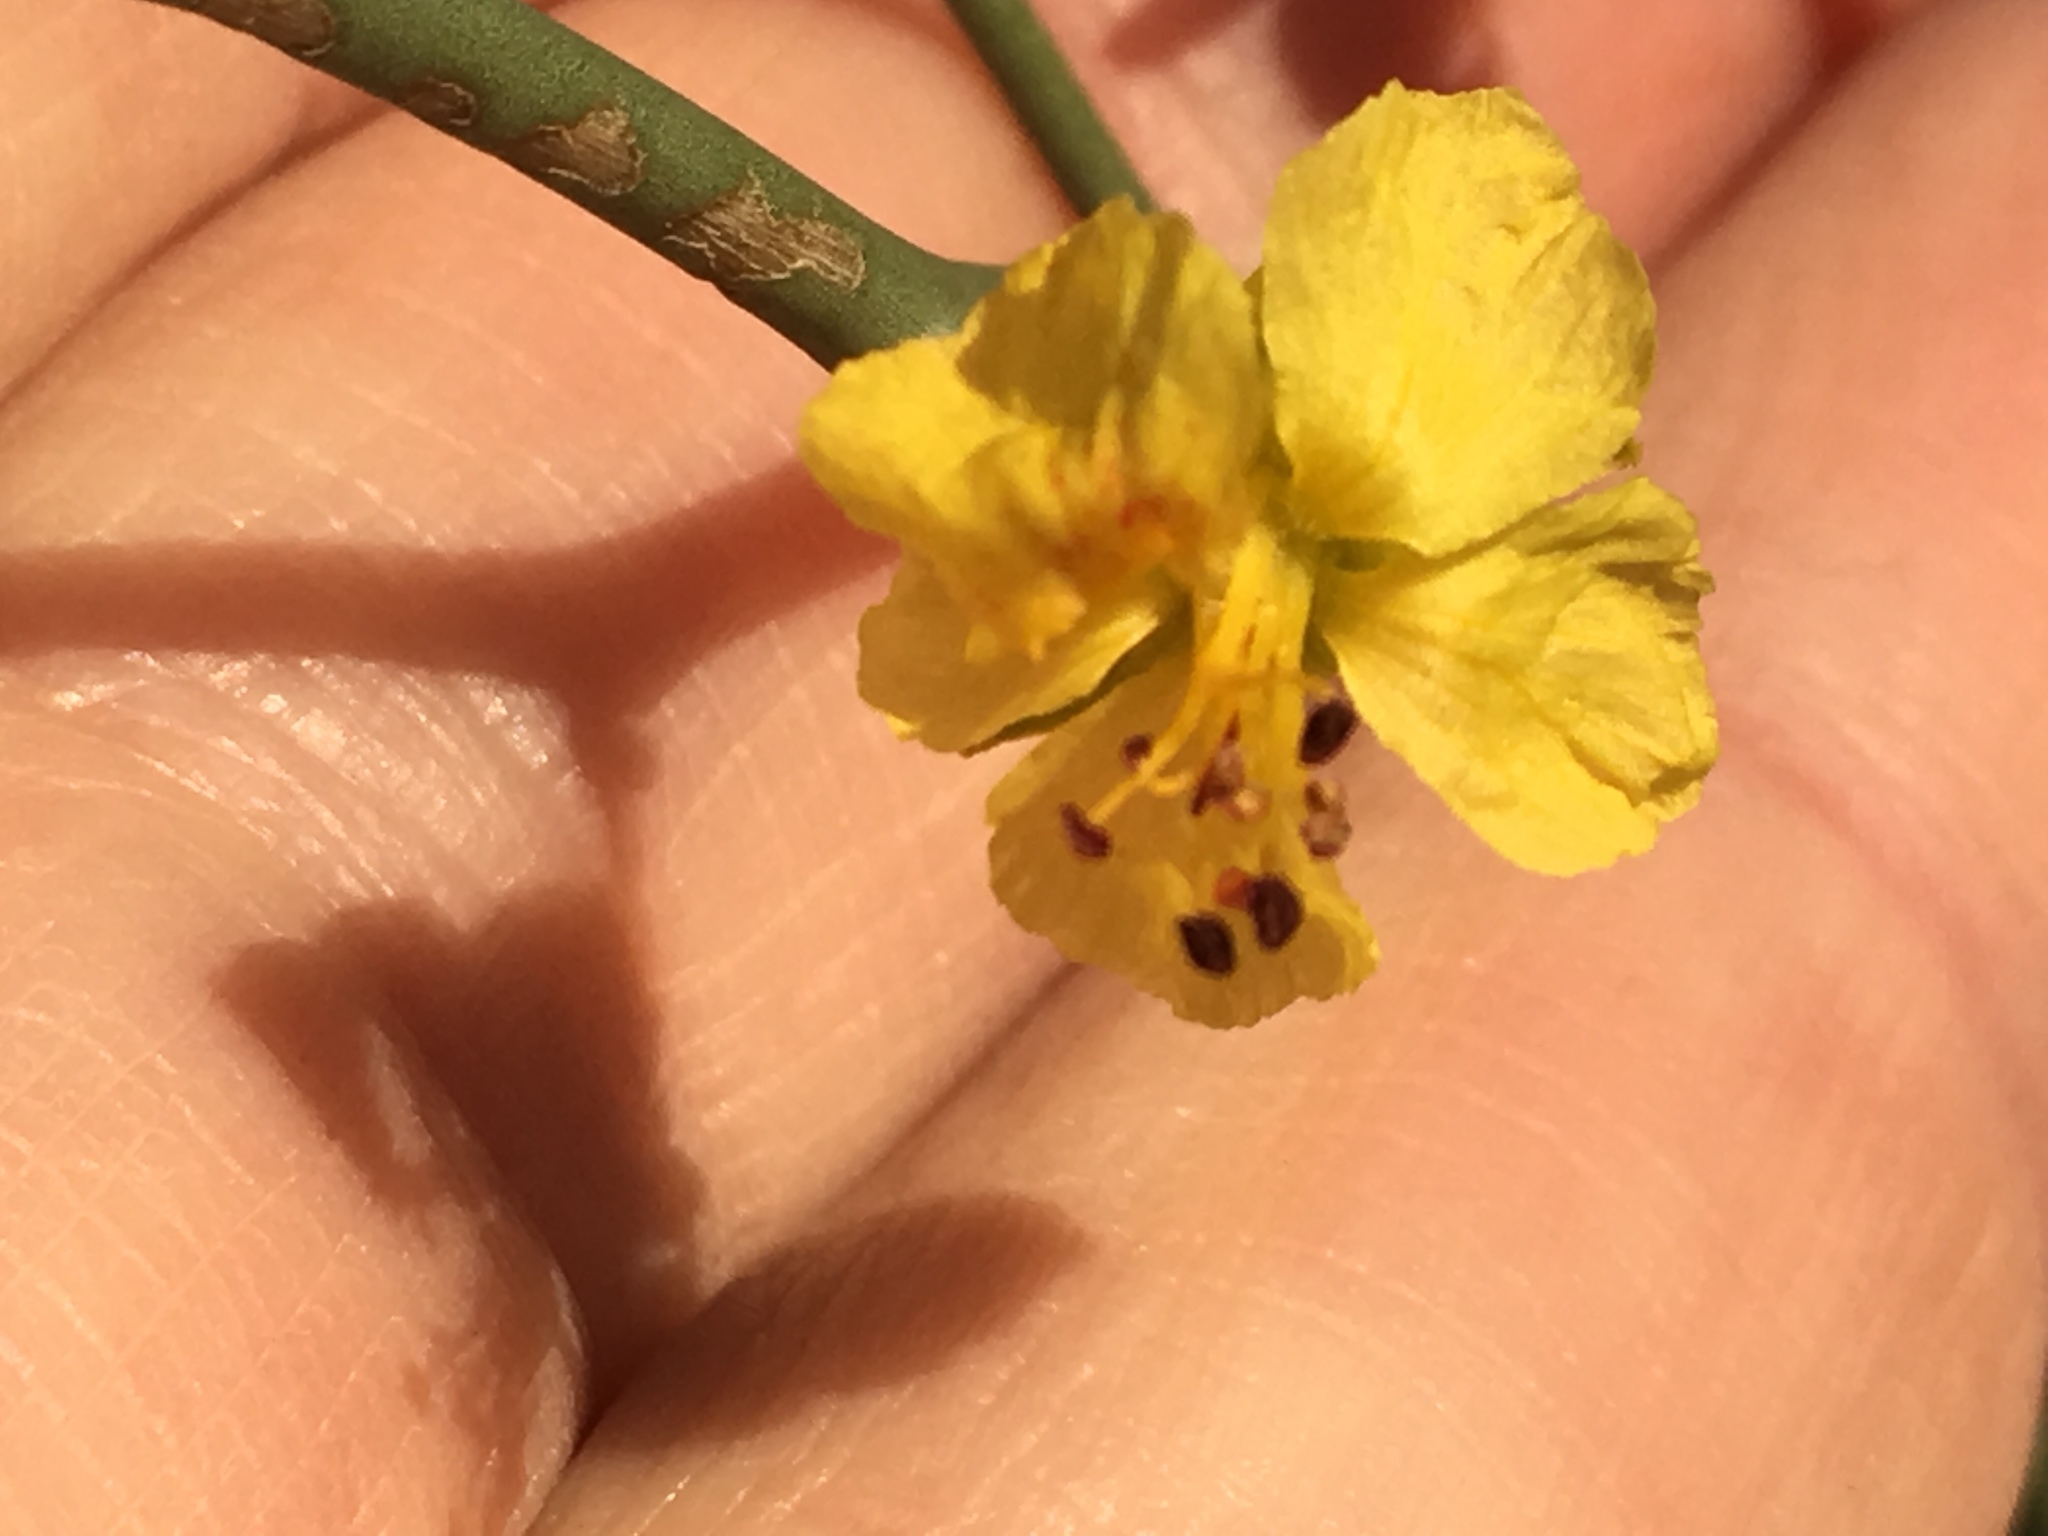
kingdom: Plantae
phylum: Tracheophyta
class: Magnoliopsida
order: Fabales
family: Fabaceae
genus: Parkinsonia
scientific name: Parkinsonia florida
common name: Blue paloverde
